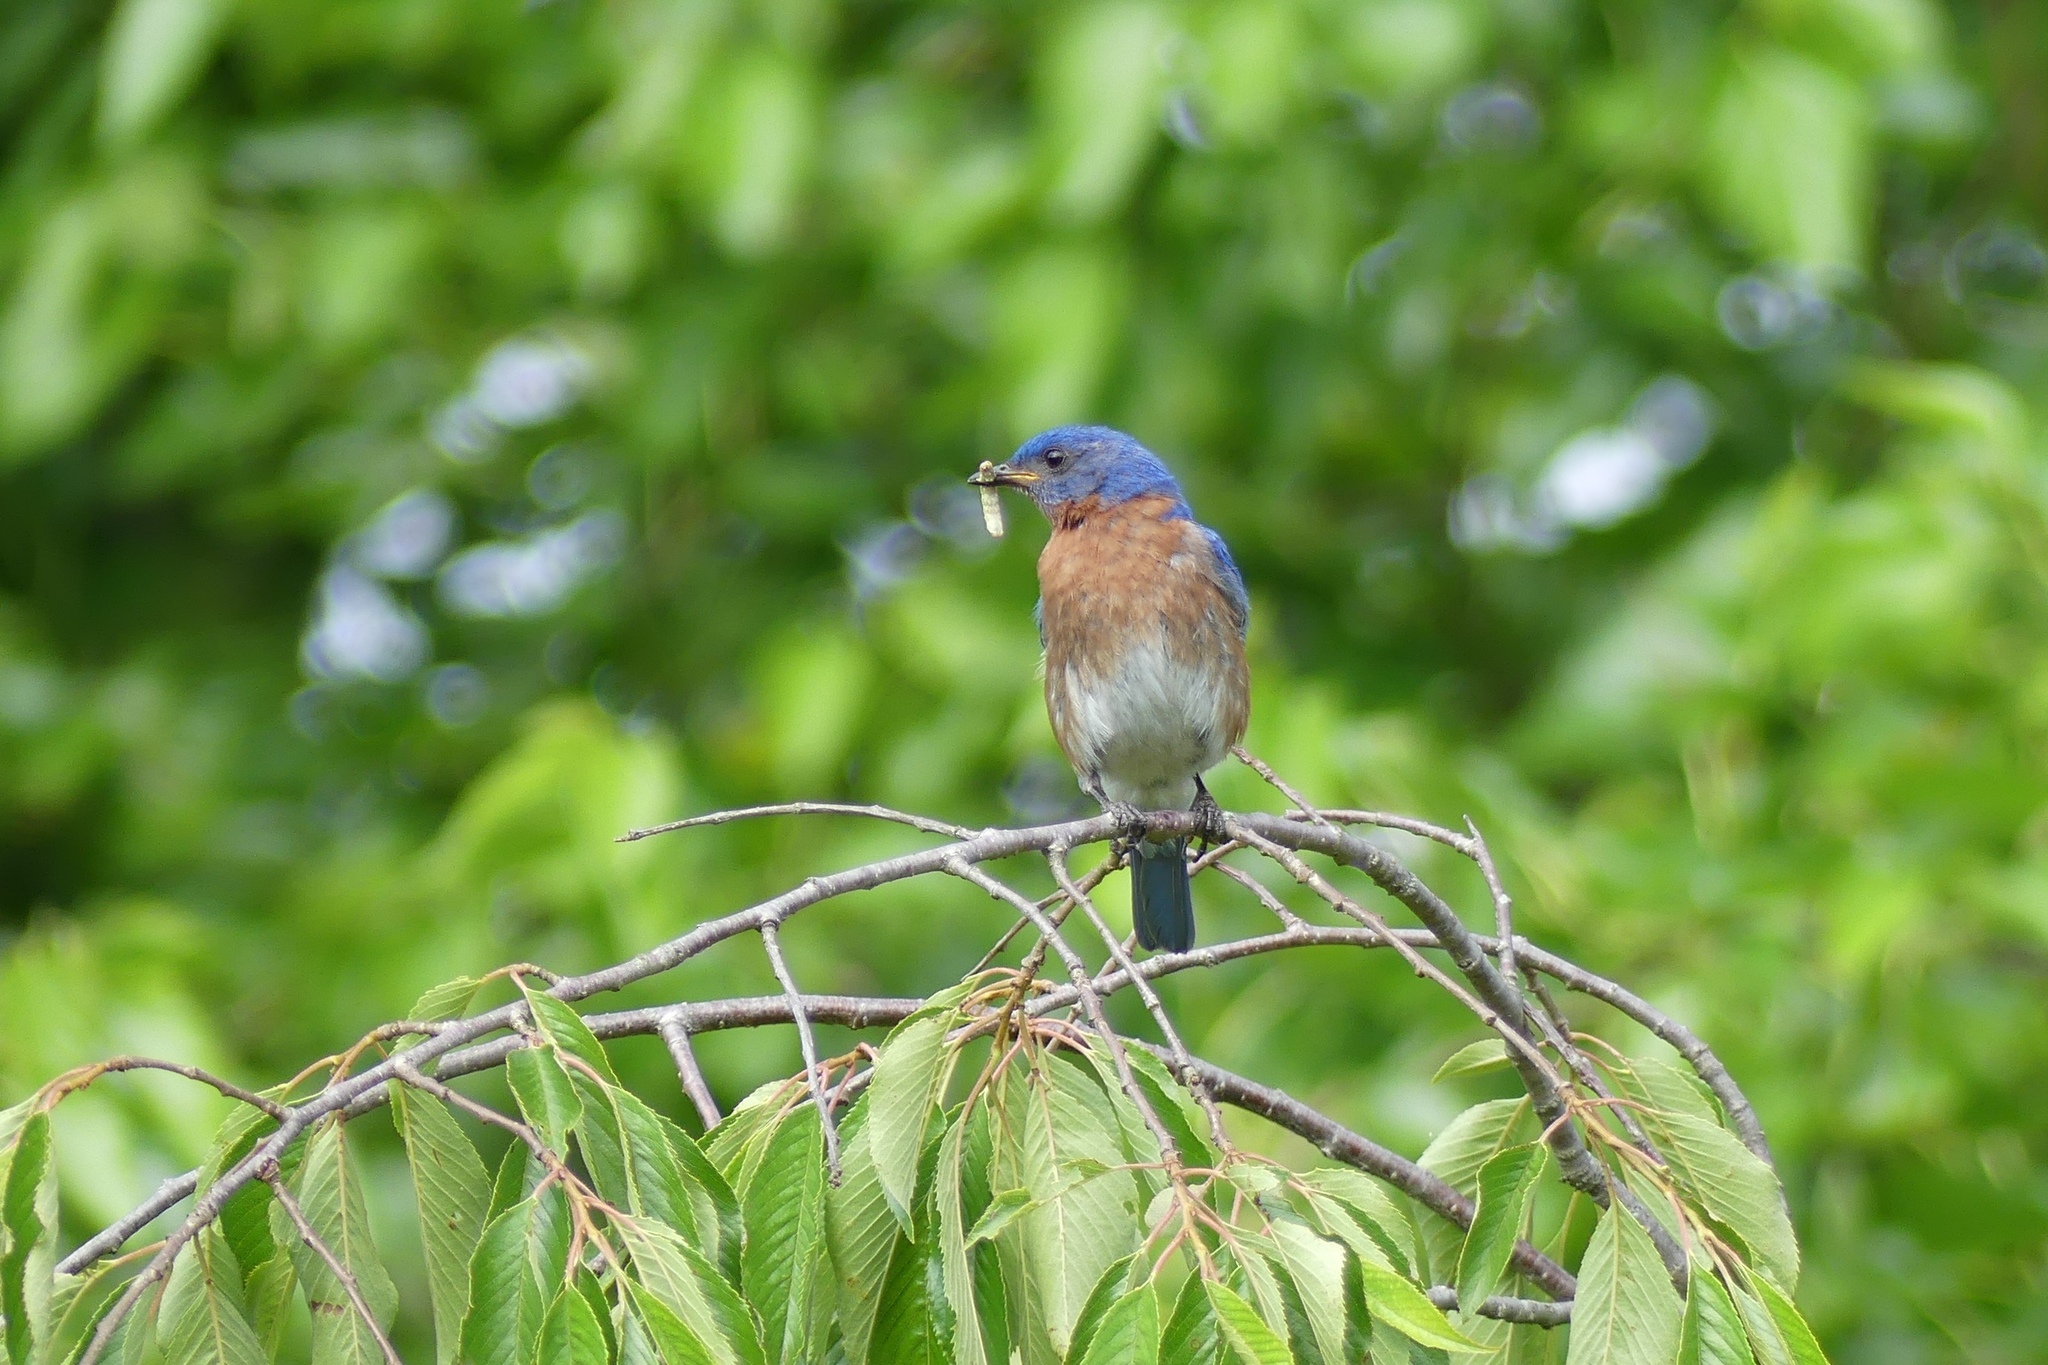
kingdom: Animalia
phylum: Chordata
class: Aves
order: Passeriformes
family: Turdidae
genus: Sialia
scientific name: Sialia sialis
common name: Eastern bluebird
